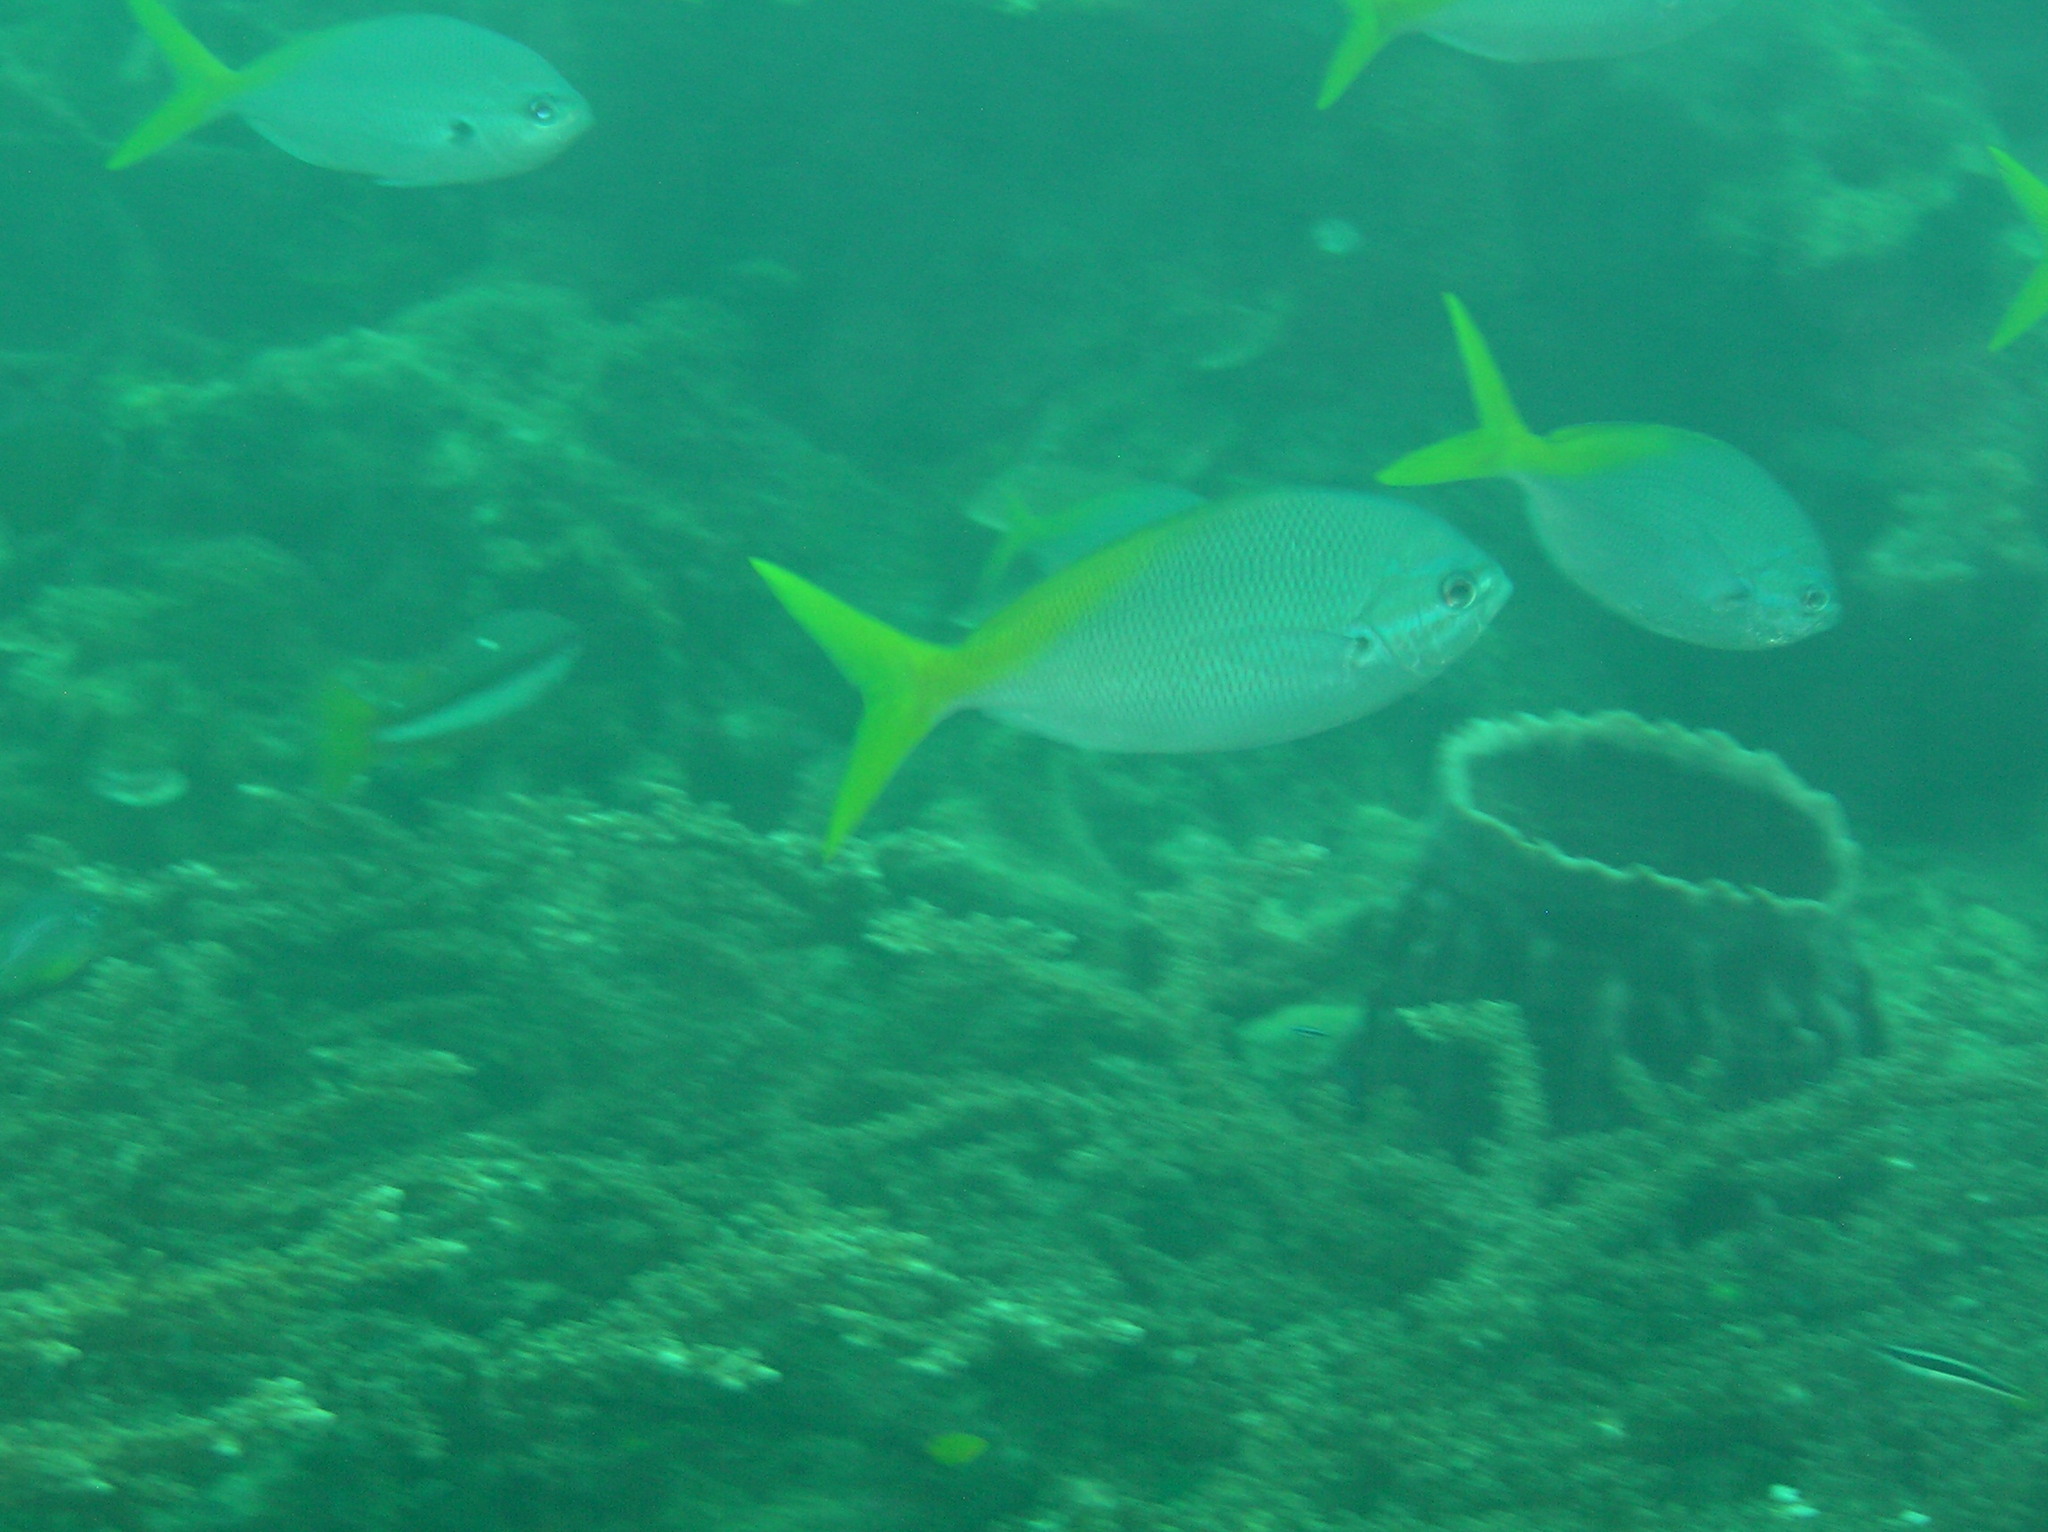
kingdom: Animalia
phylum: Chordata
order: Perciformes
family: Caesionidae
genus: Caesio
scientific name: Caesio cuning
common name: Red-bellied fusilier
